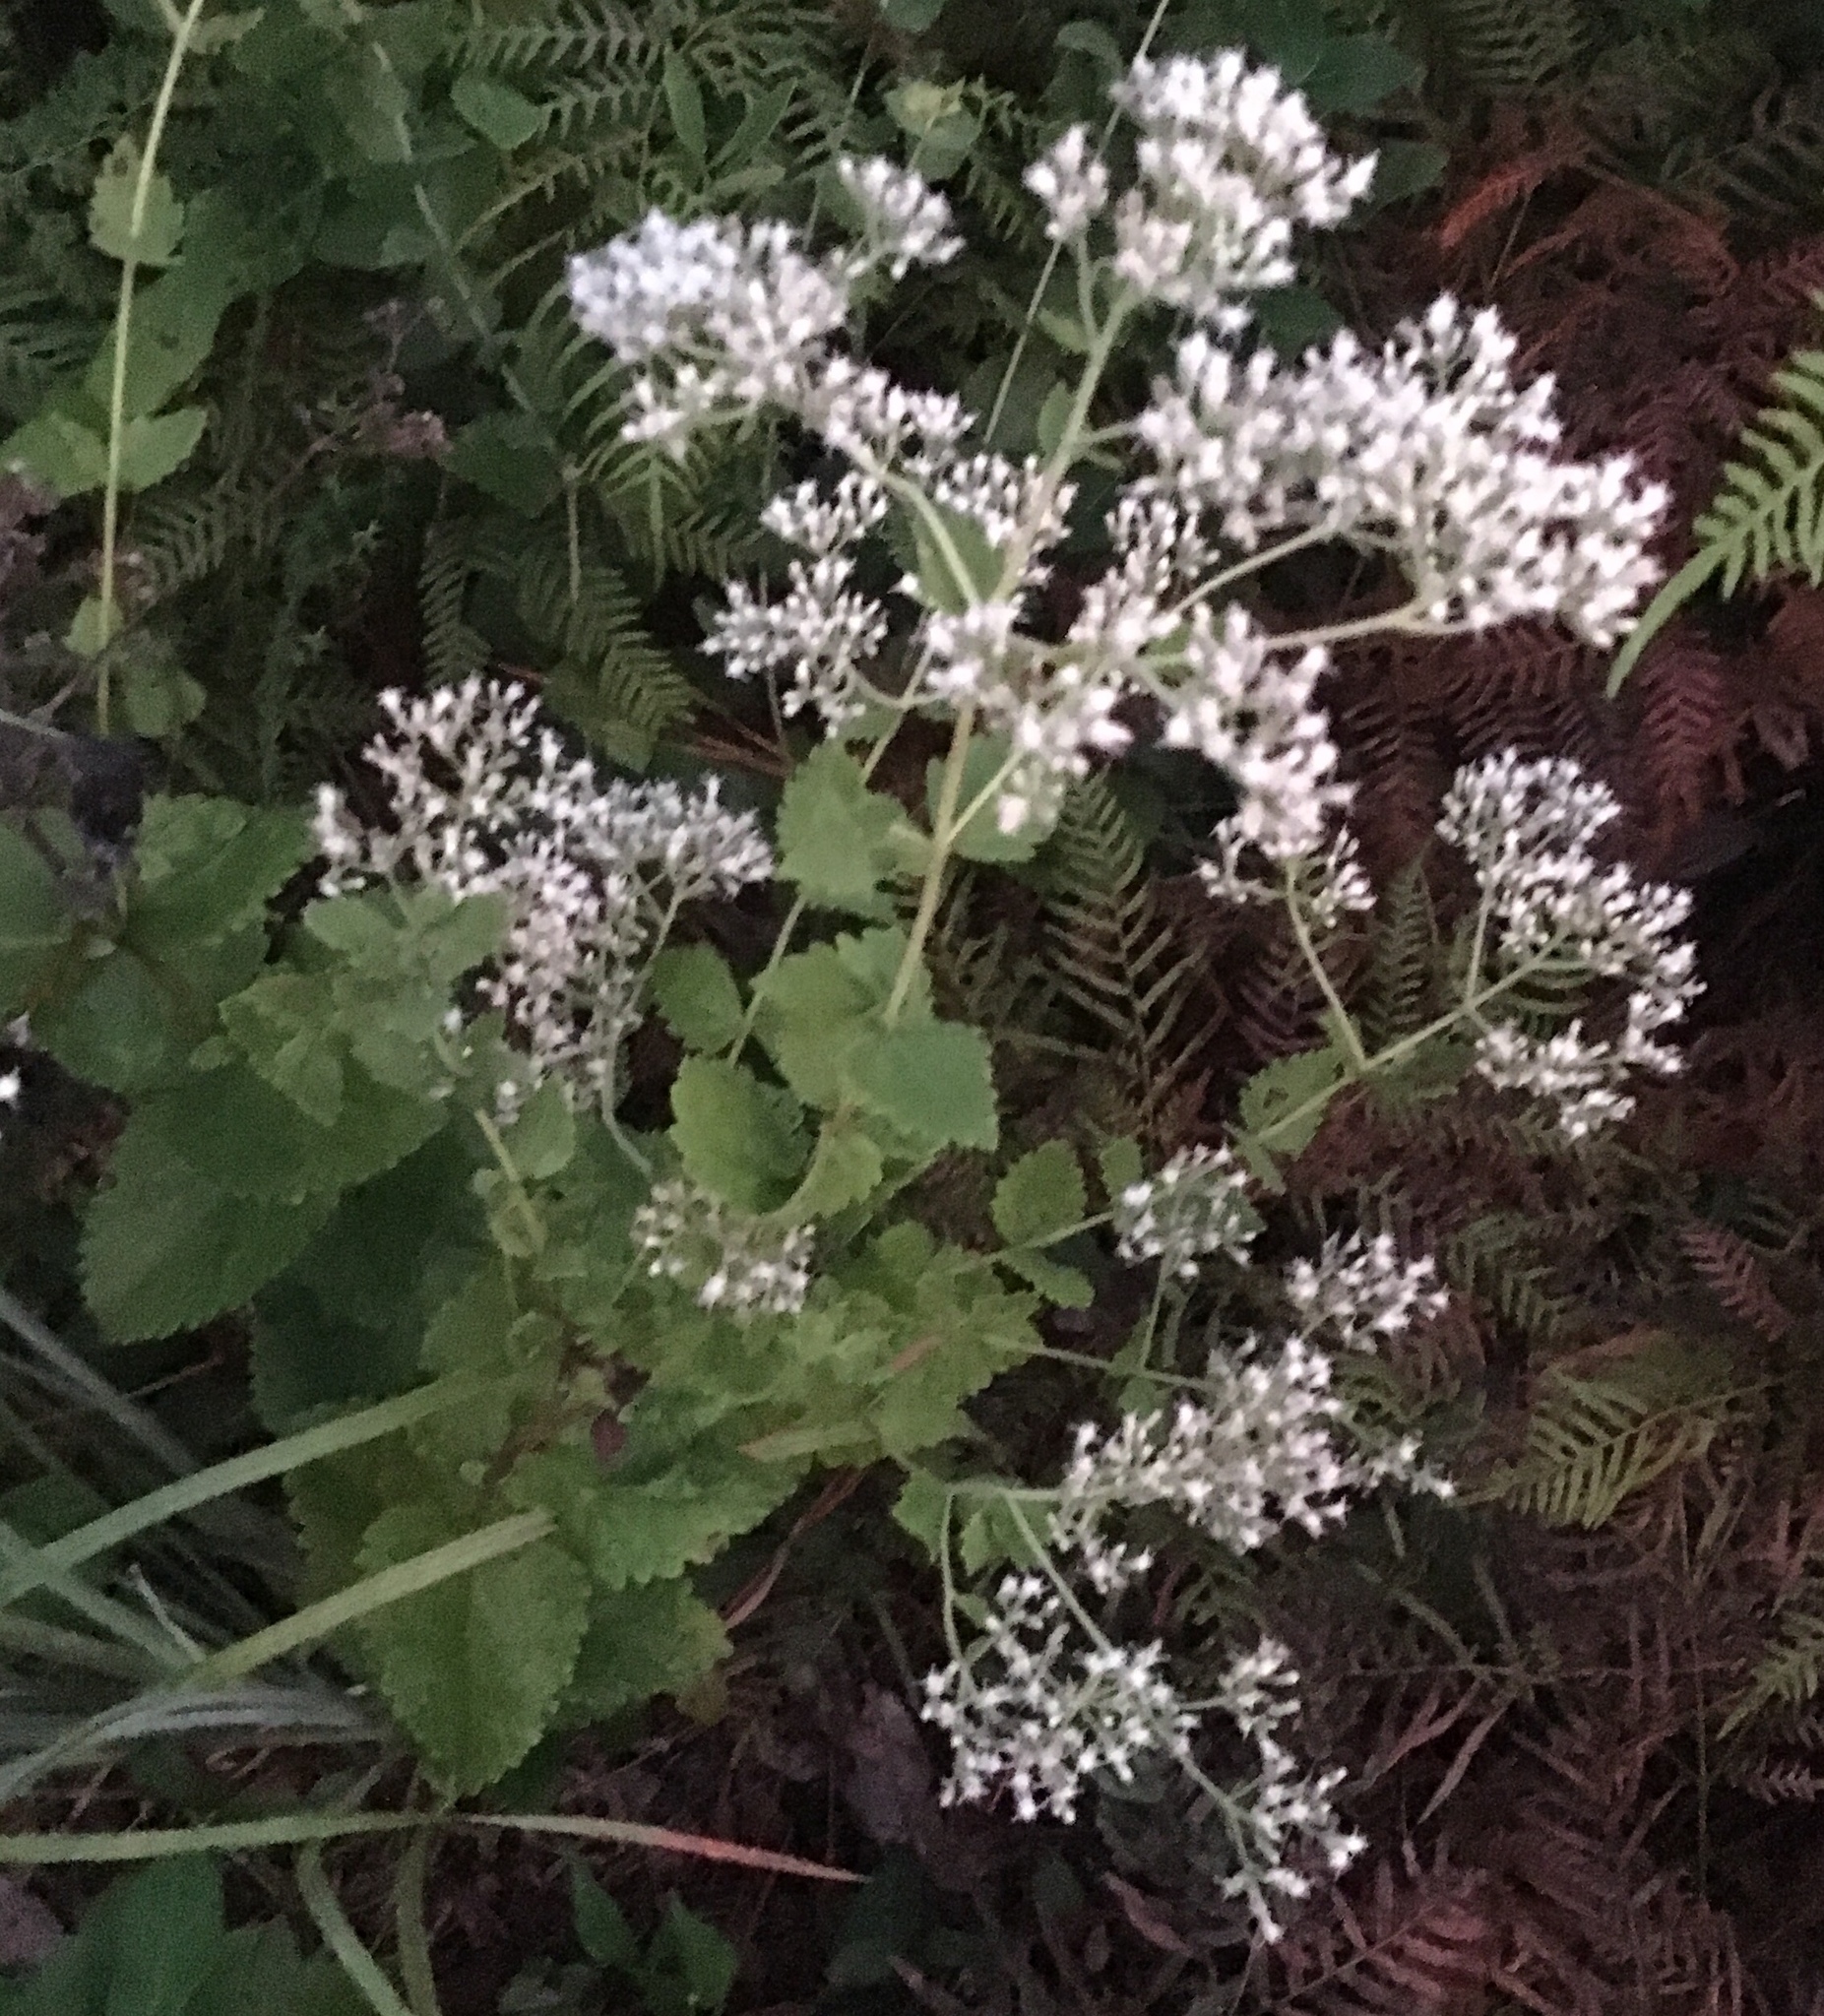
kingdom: Plantae
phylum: Tracheophyta
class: Magnoliopsida
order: Asterales
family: Asteraceae
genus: Eupatorium
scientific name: Eupatorium rotundifolium
